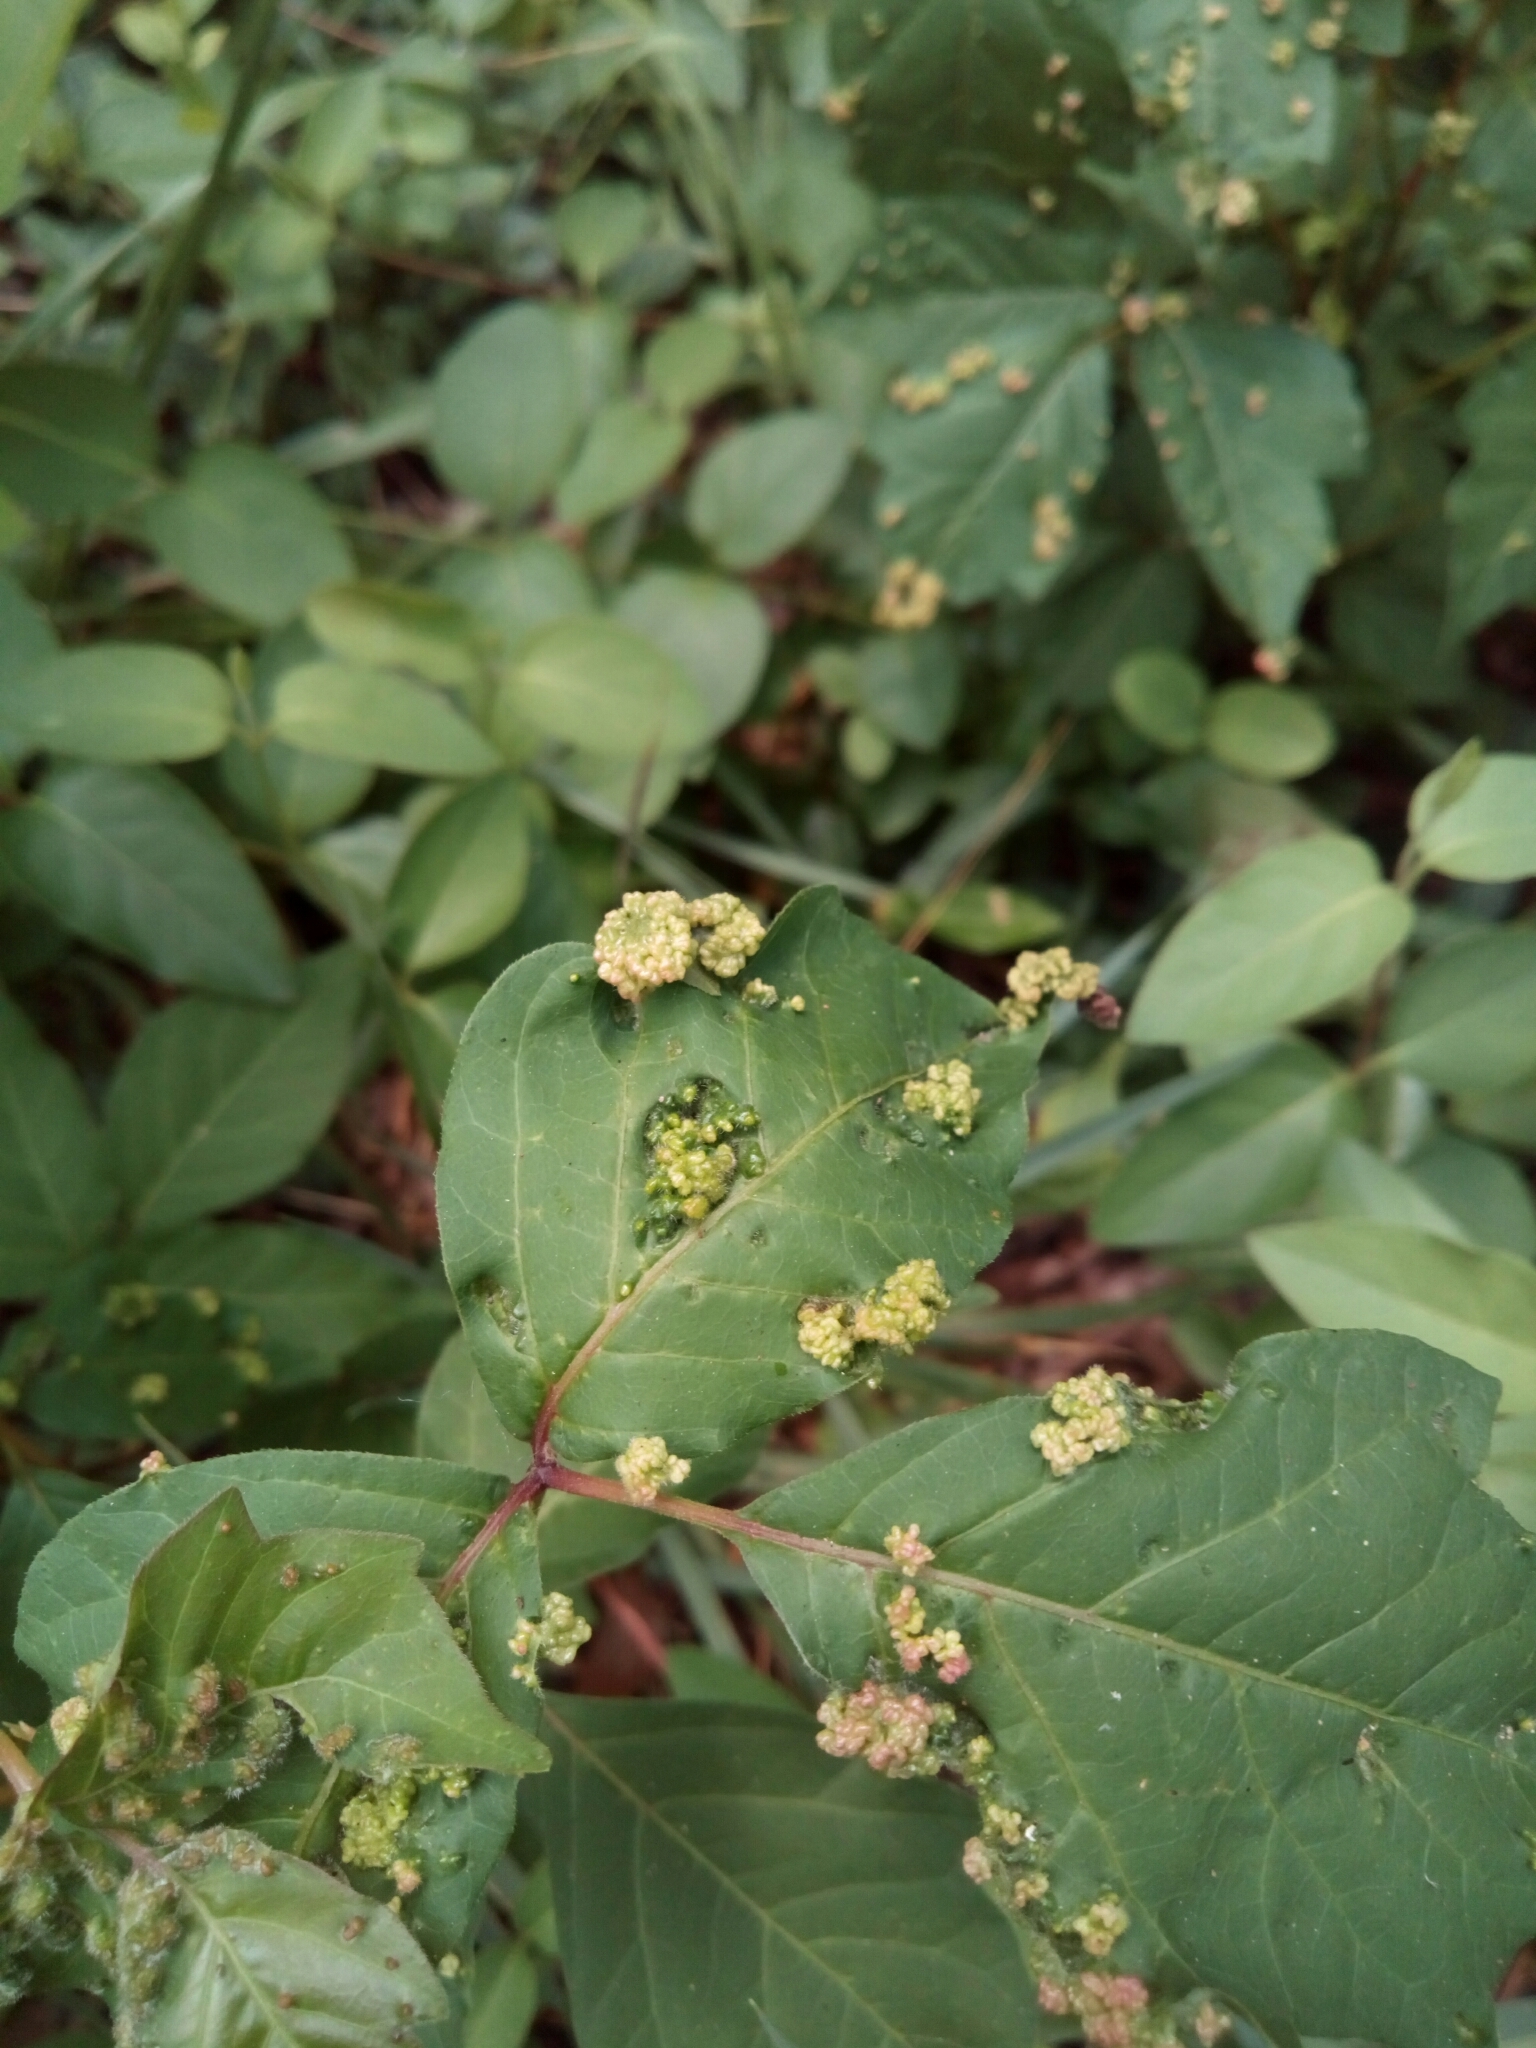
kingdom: Animalia
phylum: Arthropoda
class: Arachnida
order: Trombidiformes
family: Eriophyidae
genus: Aculops
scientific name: Aculops
